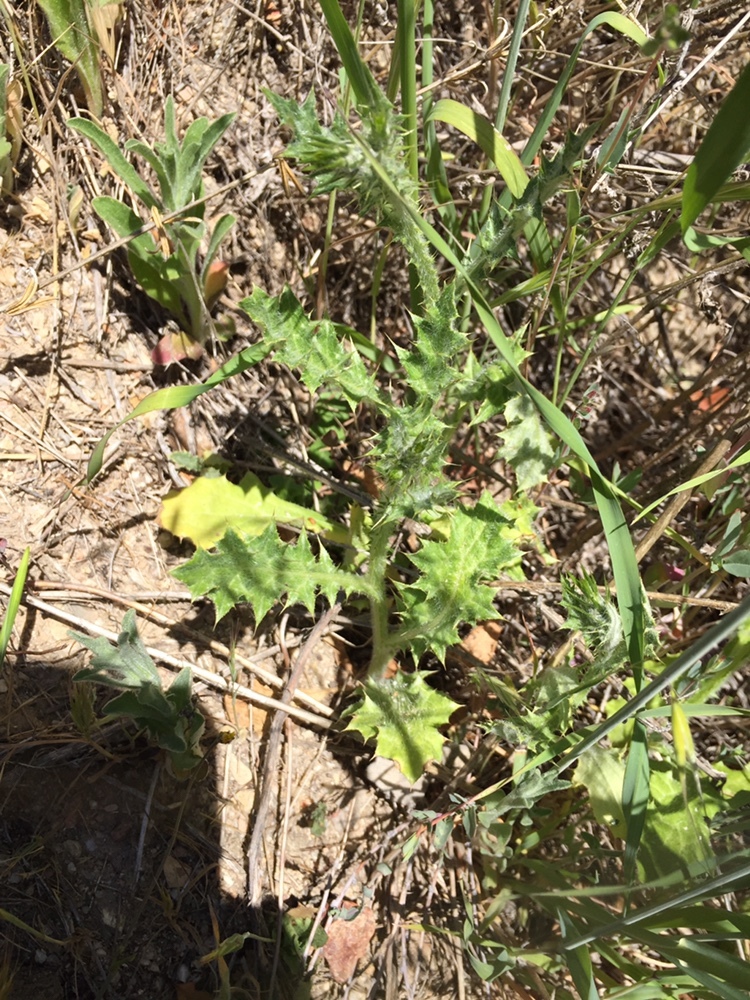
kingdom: Plantae
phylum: Tracheophyta
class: Magnoliopsida
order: Asterales
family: Asteraceae
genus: Carduus
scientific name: Carduus pycnocephalus
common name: Plymouth thistle
